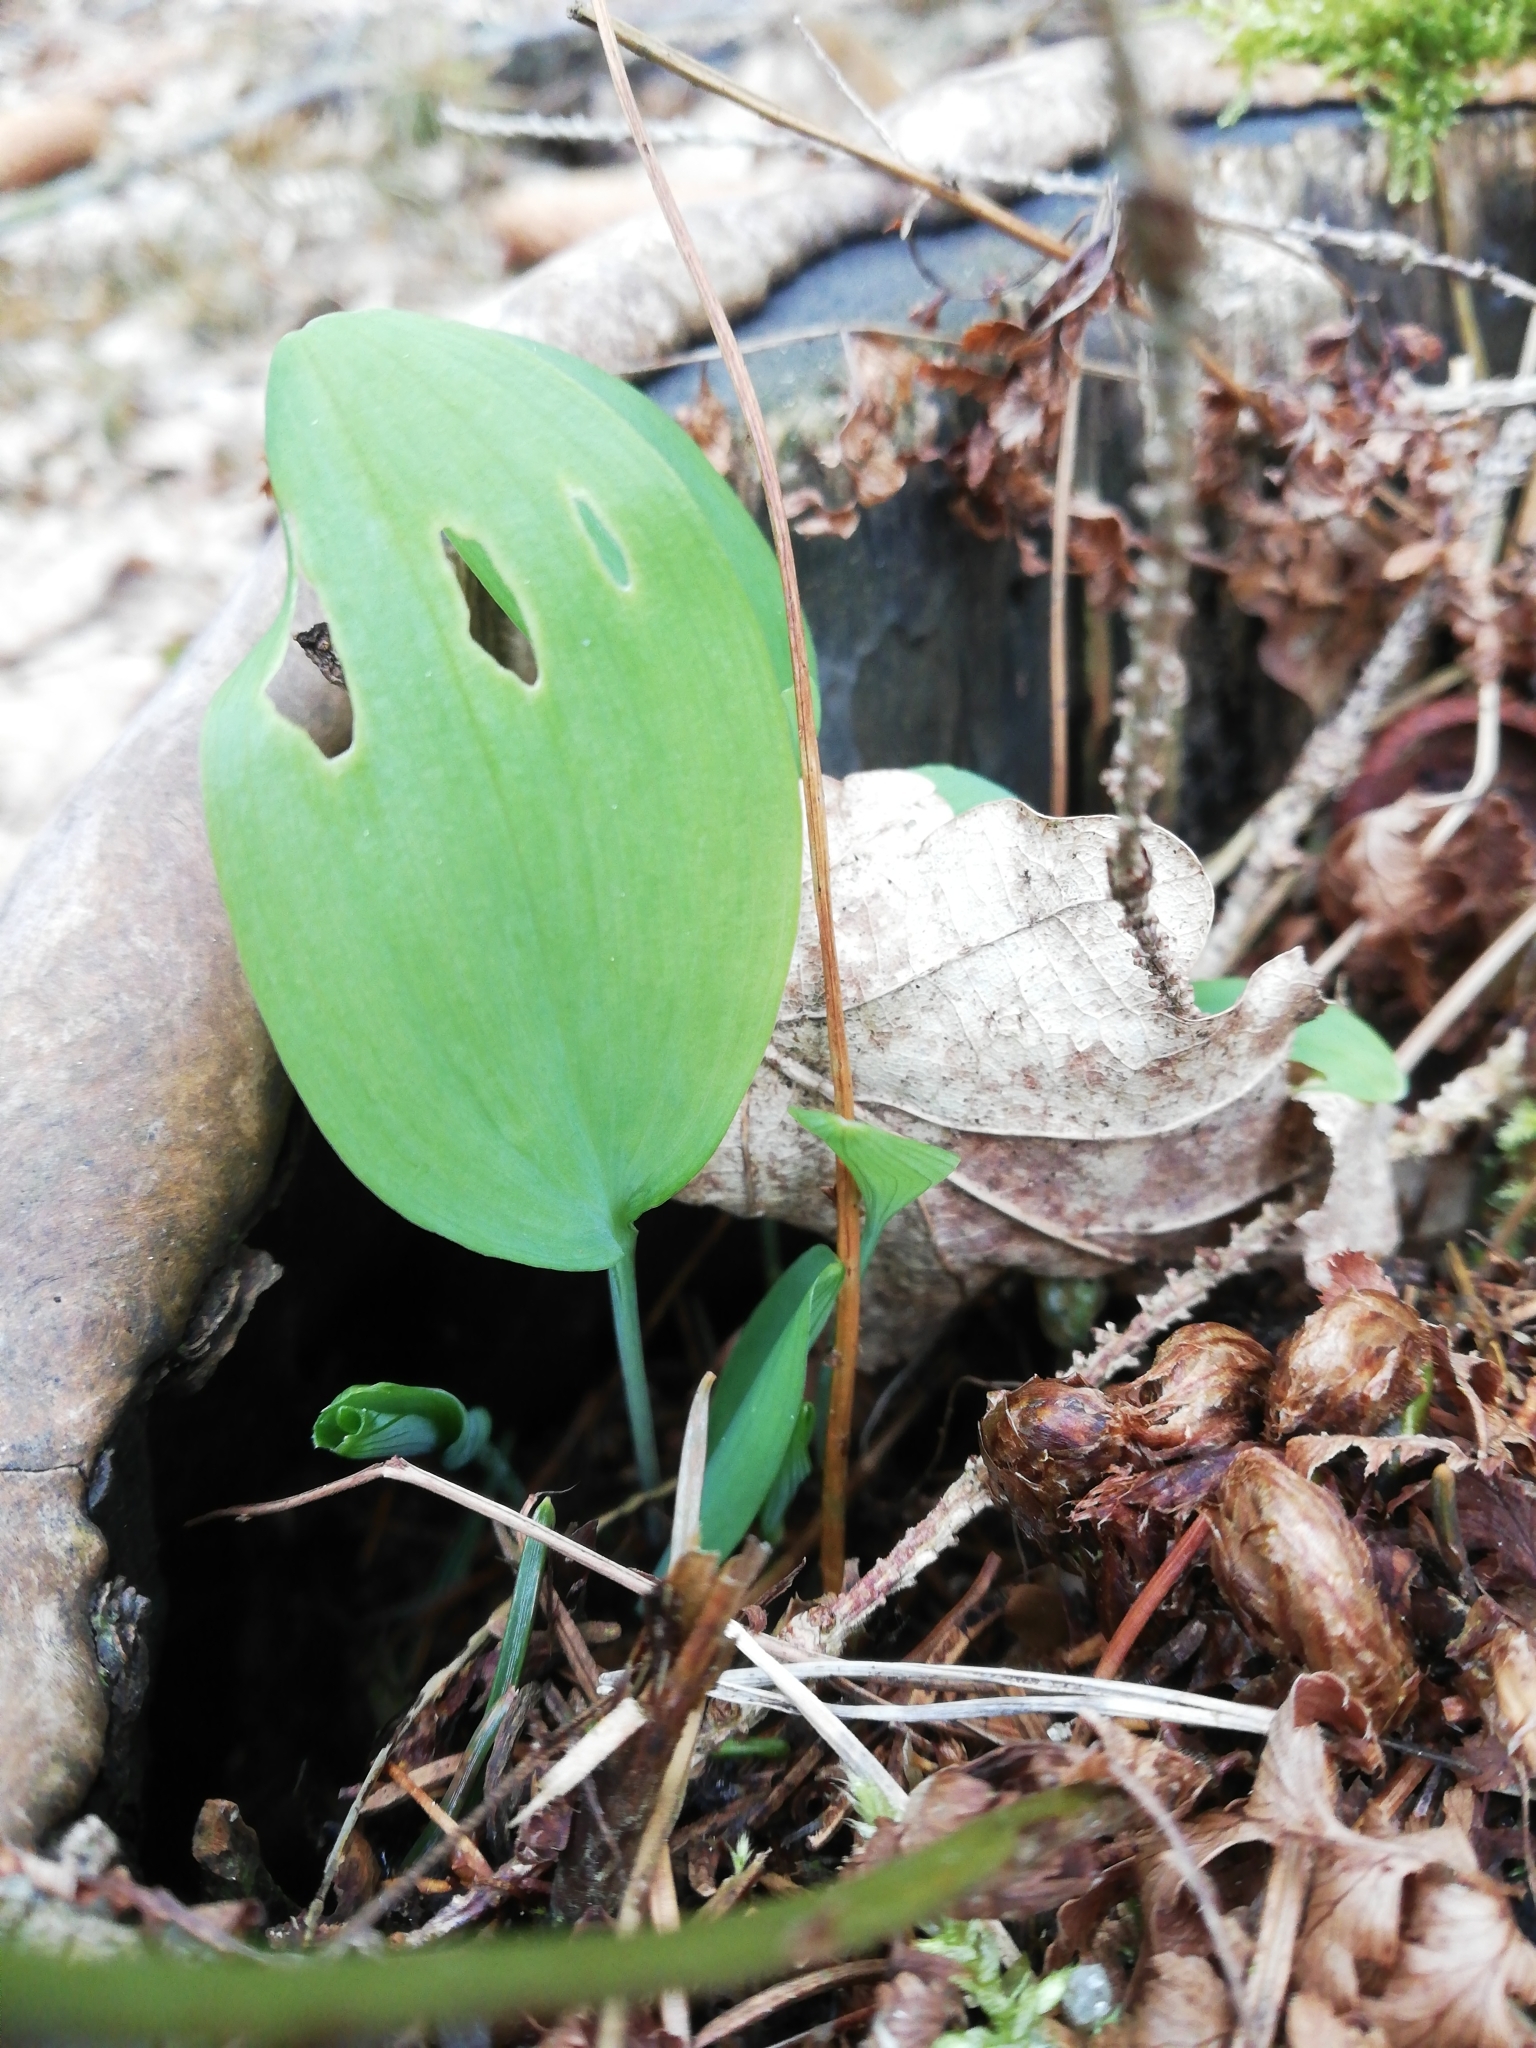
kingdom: Plantae
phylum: Tracheophyta
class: Liliopsida
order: Asparagales
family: Asparagaceae
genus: Convallaria
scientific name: Convallaria majalis
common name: Lily-of-the-valley
